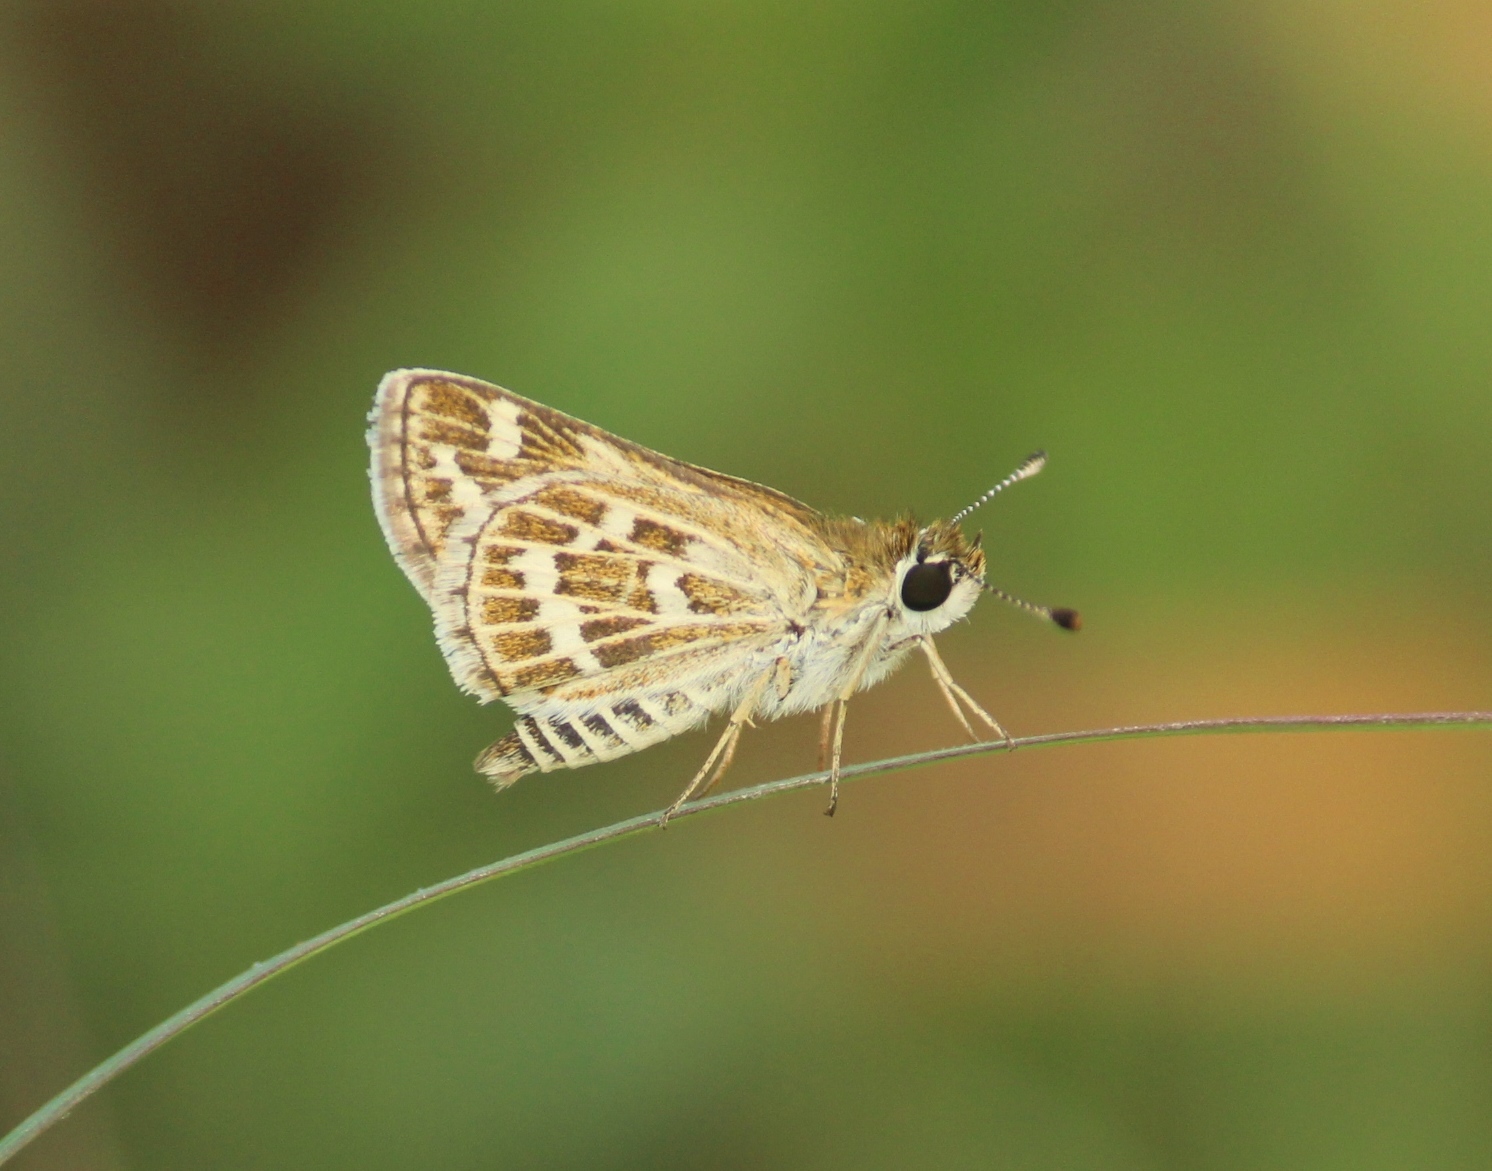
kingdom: Animalia
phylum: Arthropoda
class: Insecta
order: Lepidoptera
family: Hesperiidae
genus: Taractrocera
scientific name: Taractrocera maevius
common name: Common grass-dart
